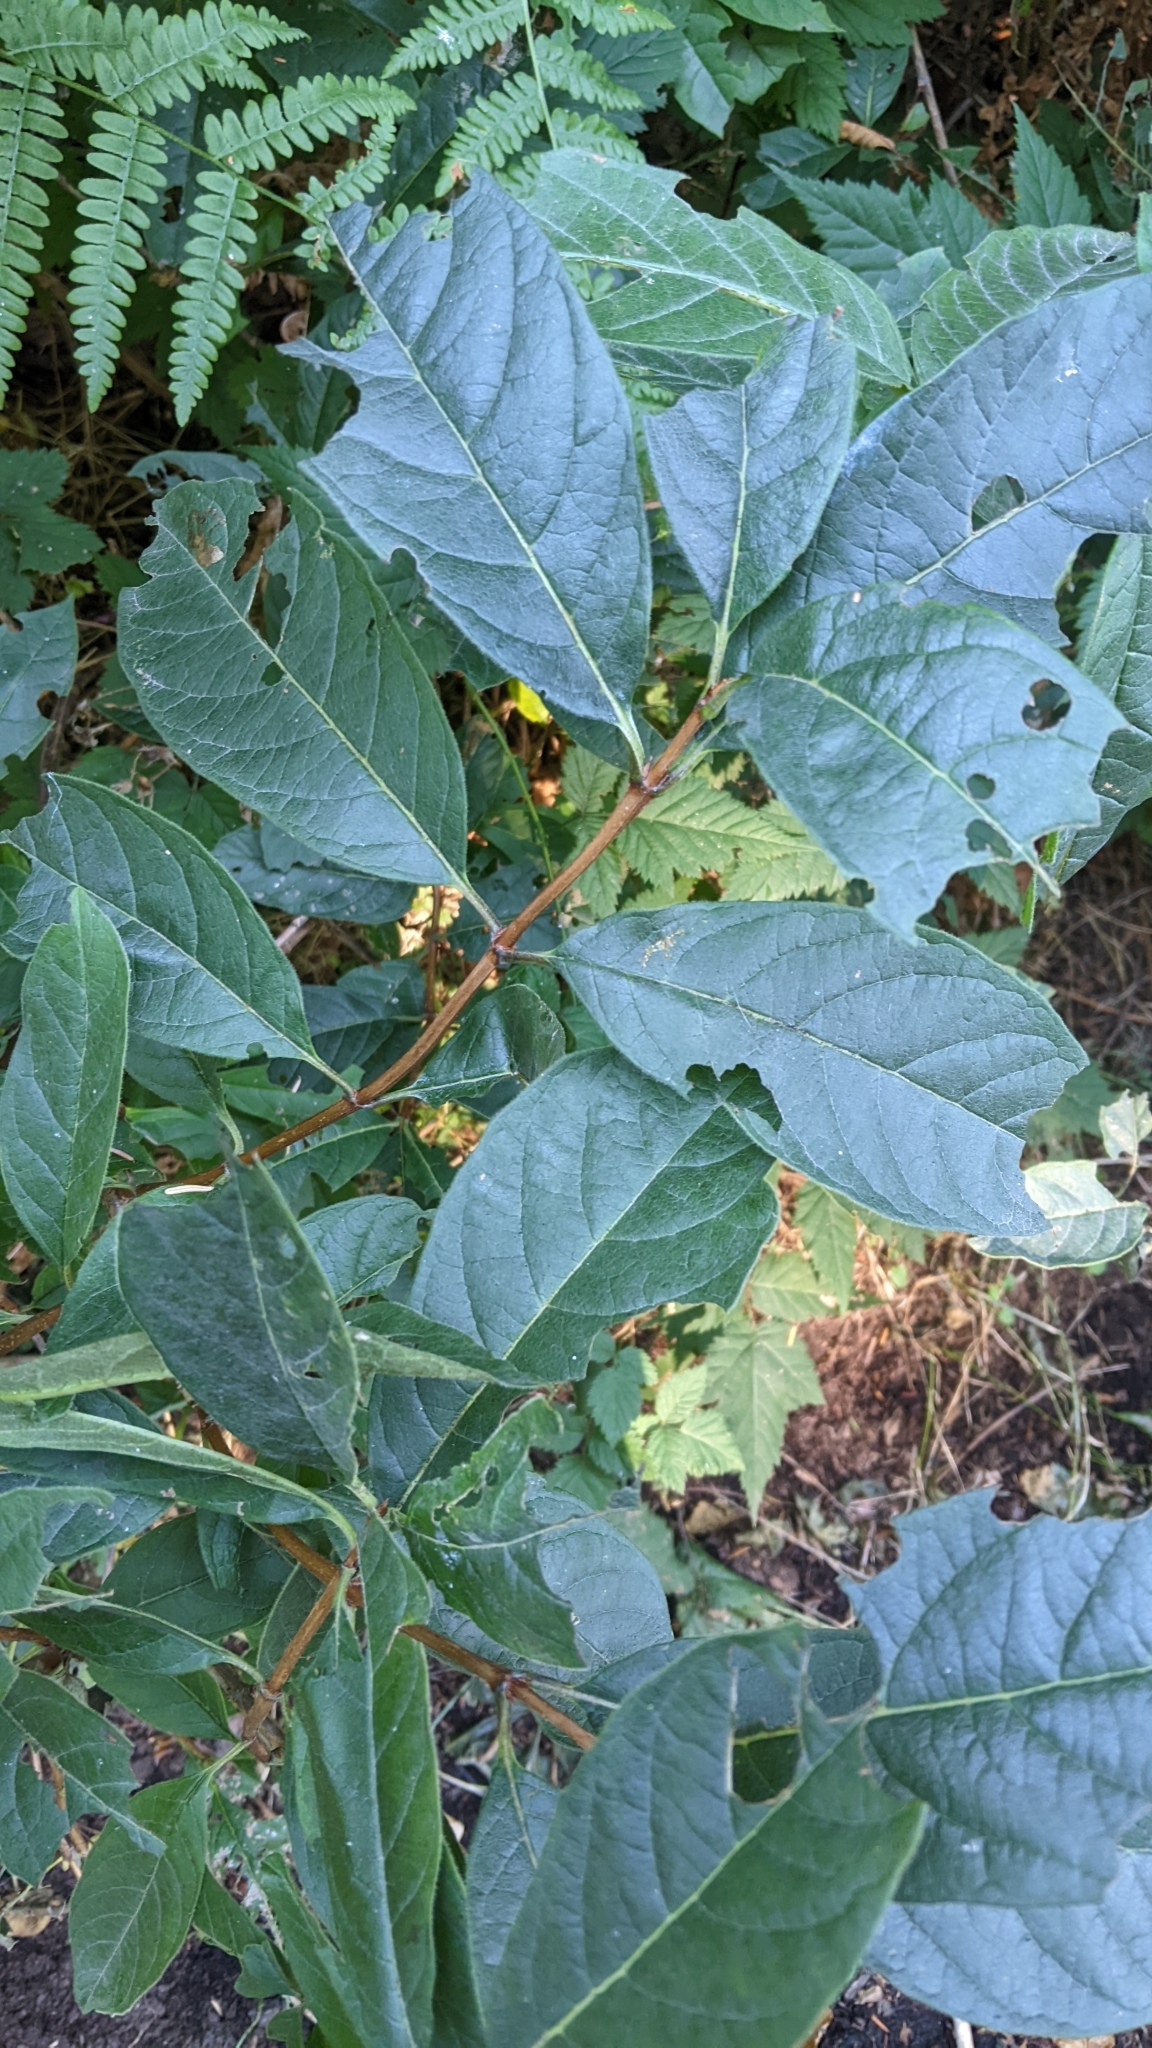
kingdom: Plantae
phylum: Tracheophyta
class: Magnoliopsida
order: Dipsacales
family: Caprifoliaceae
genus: Lonicera
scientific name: Lonicera involucrata
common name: Californian honeysuckle
